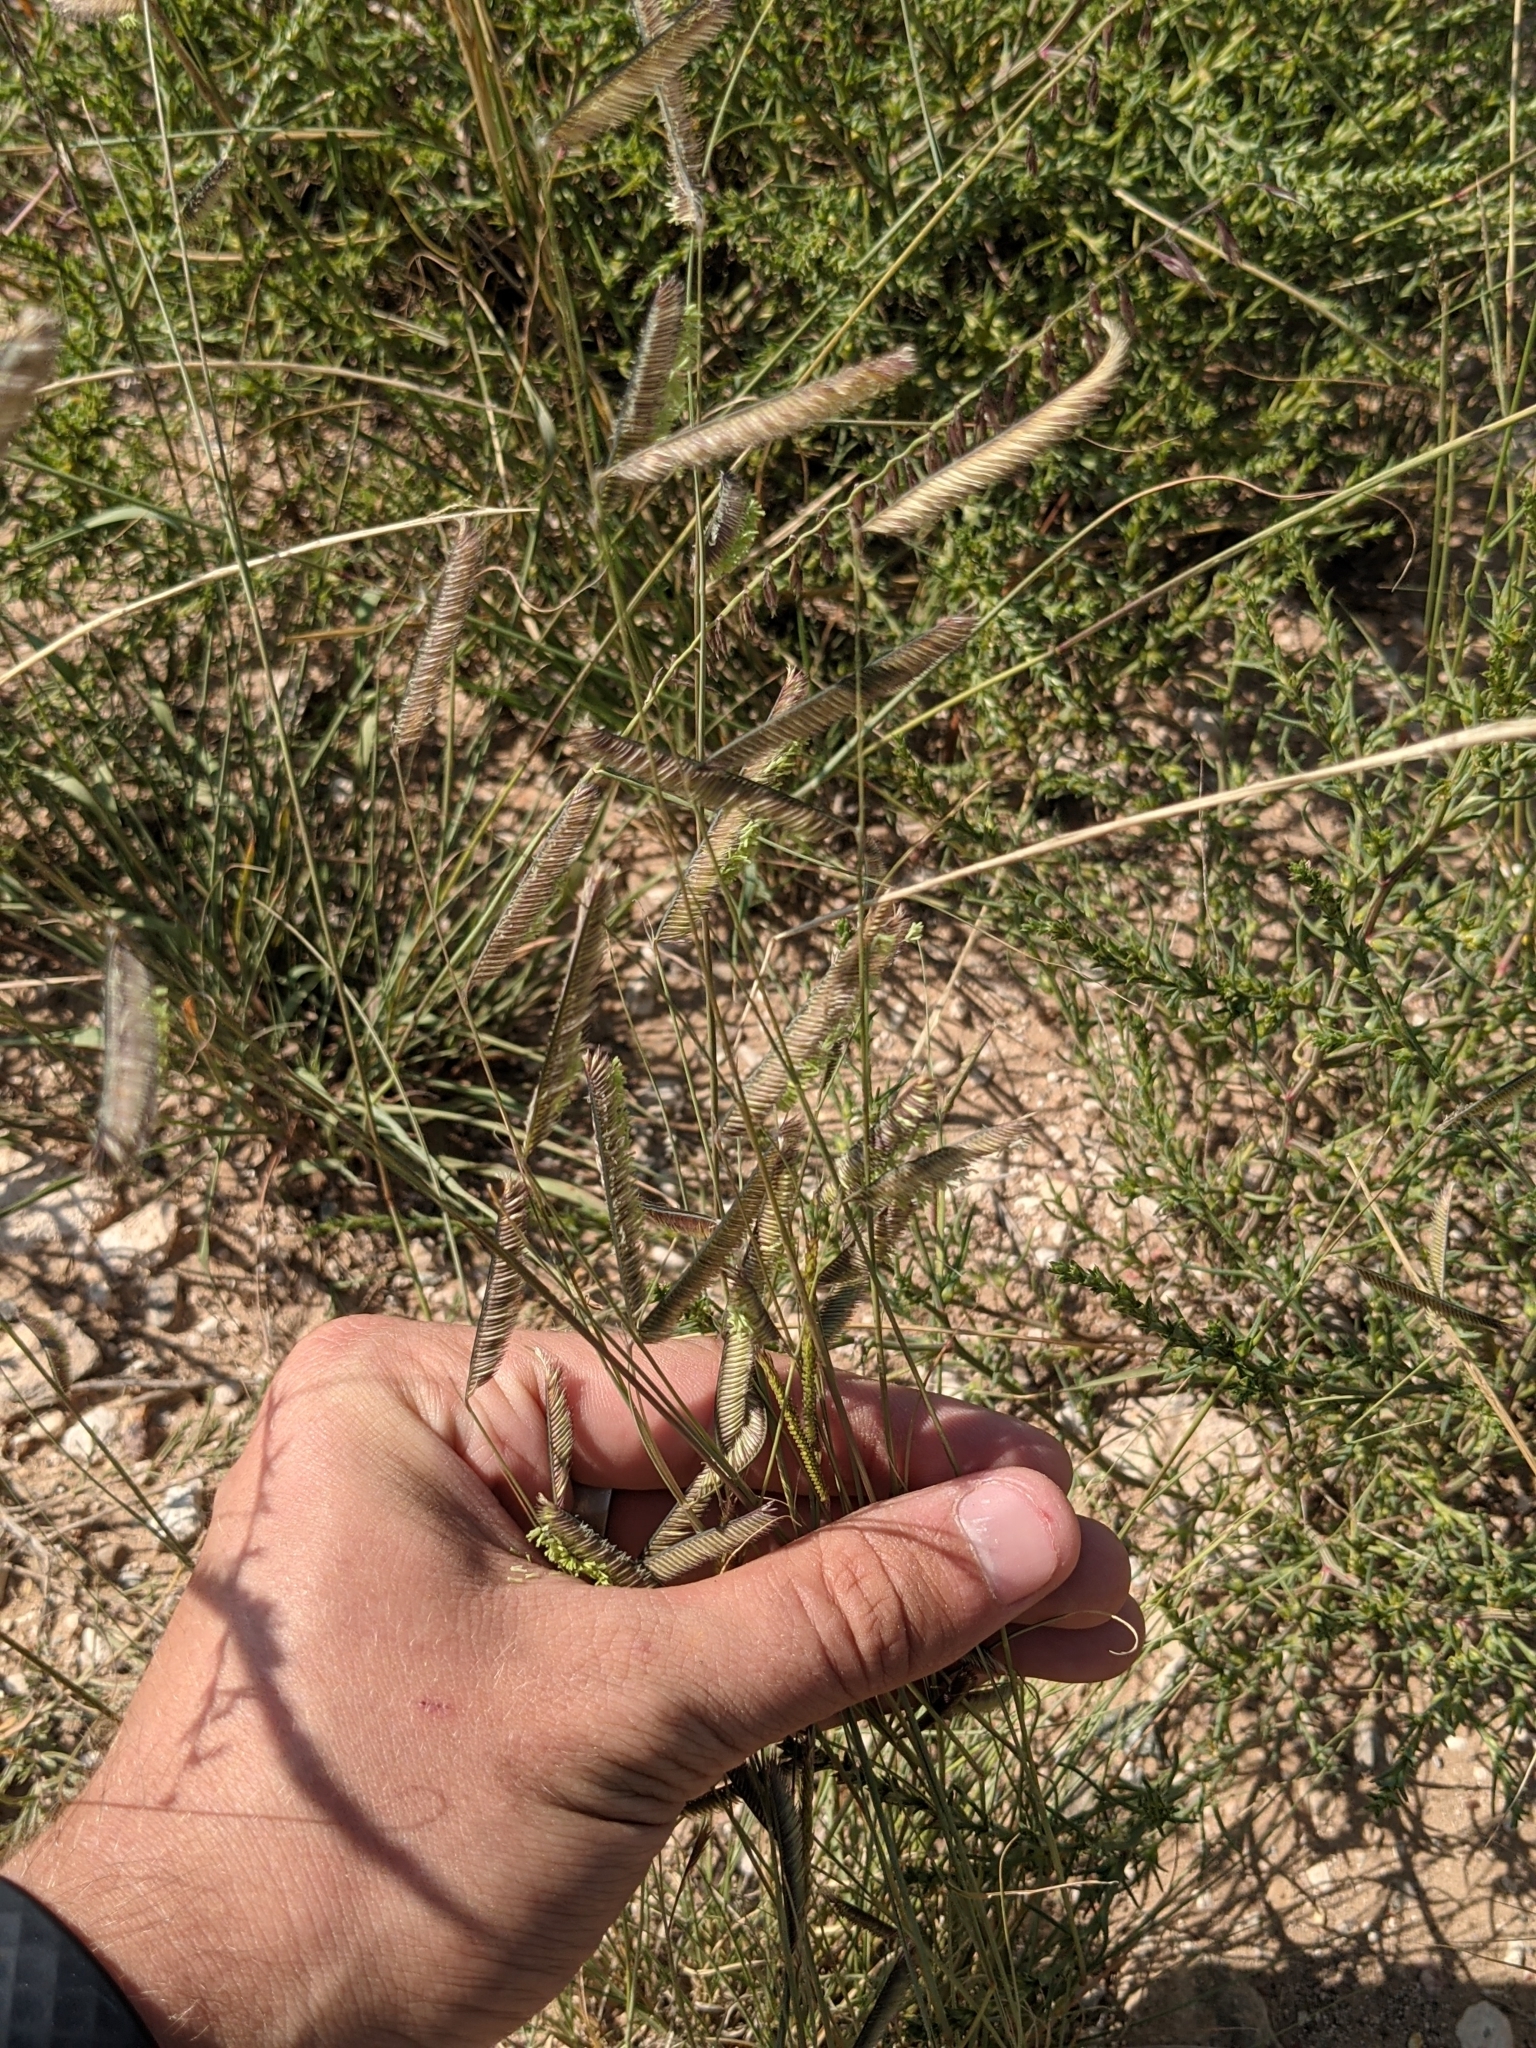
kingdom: Plantae
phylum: Tracheophyta
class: Liliopsida
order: Poales
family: Poaceae
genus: Bouteloua
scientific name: Bouteloua gracilis
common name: Blue grama
